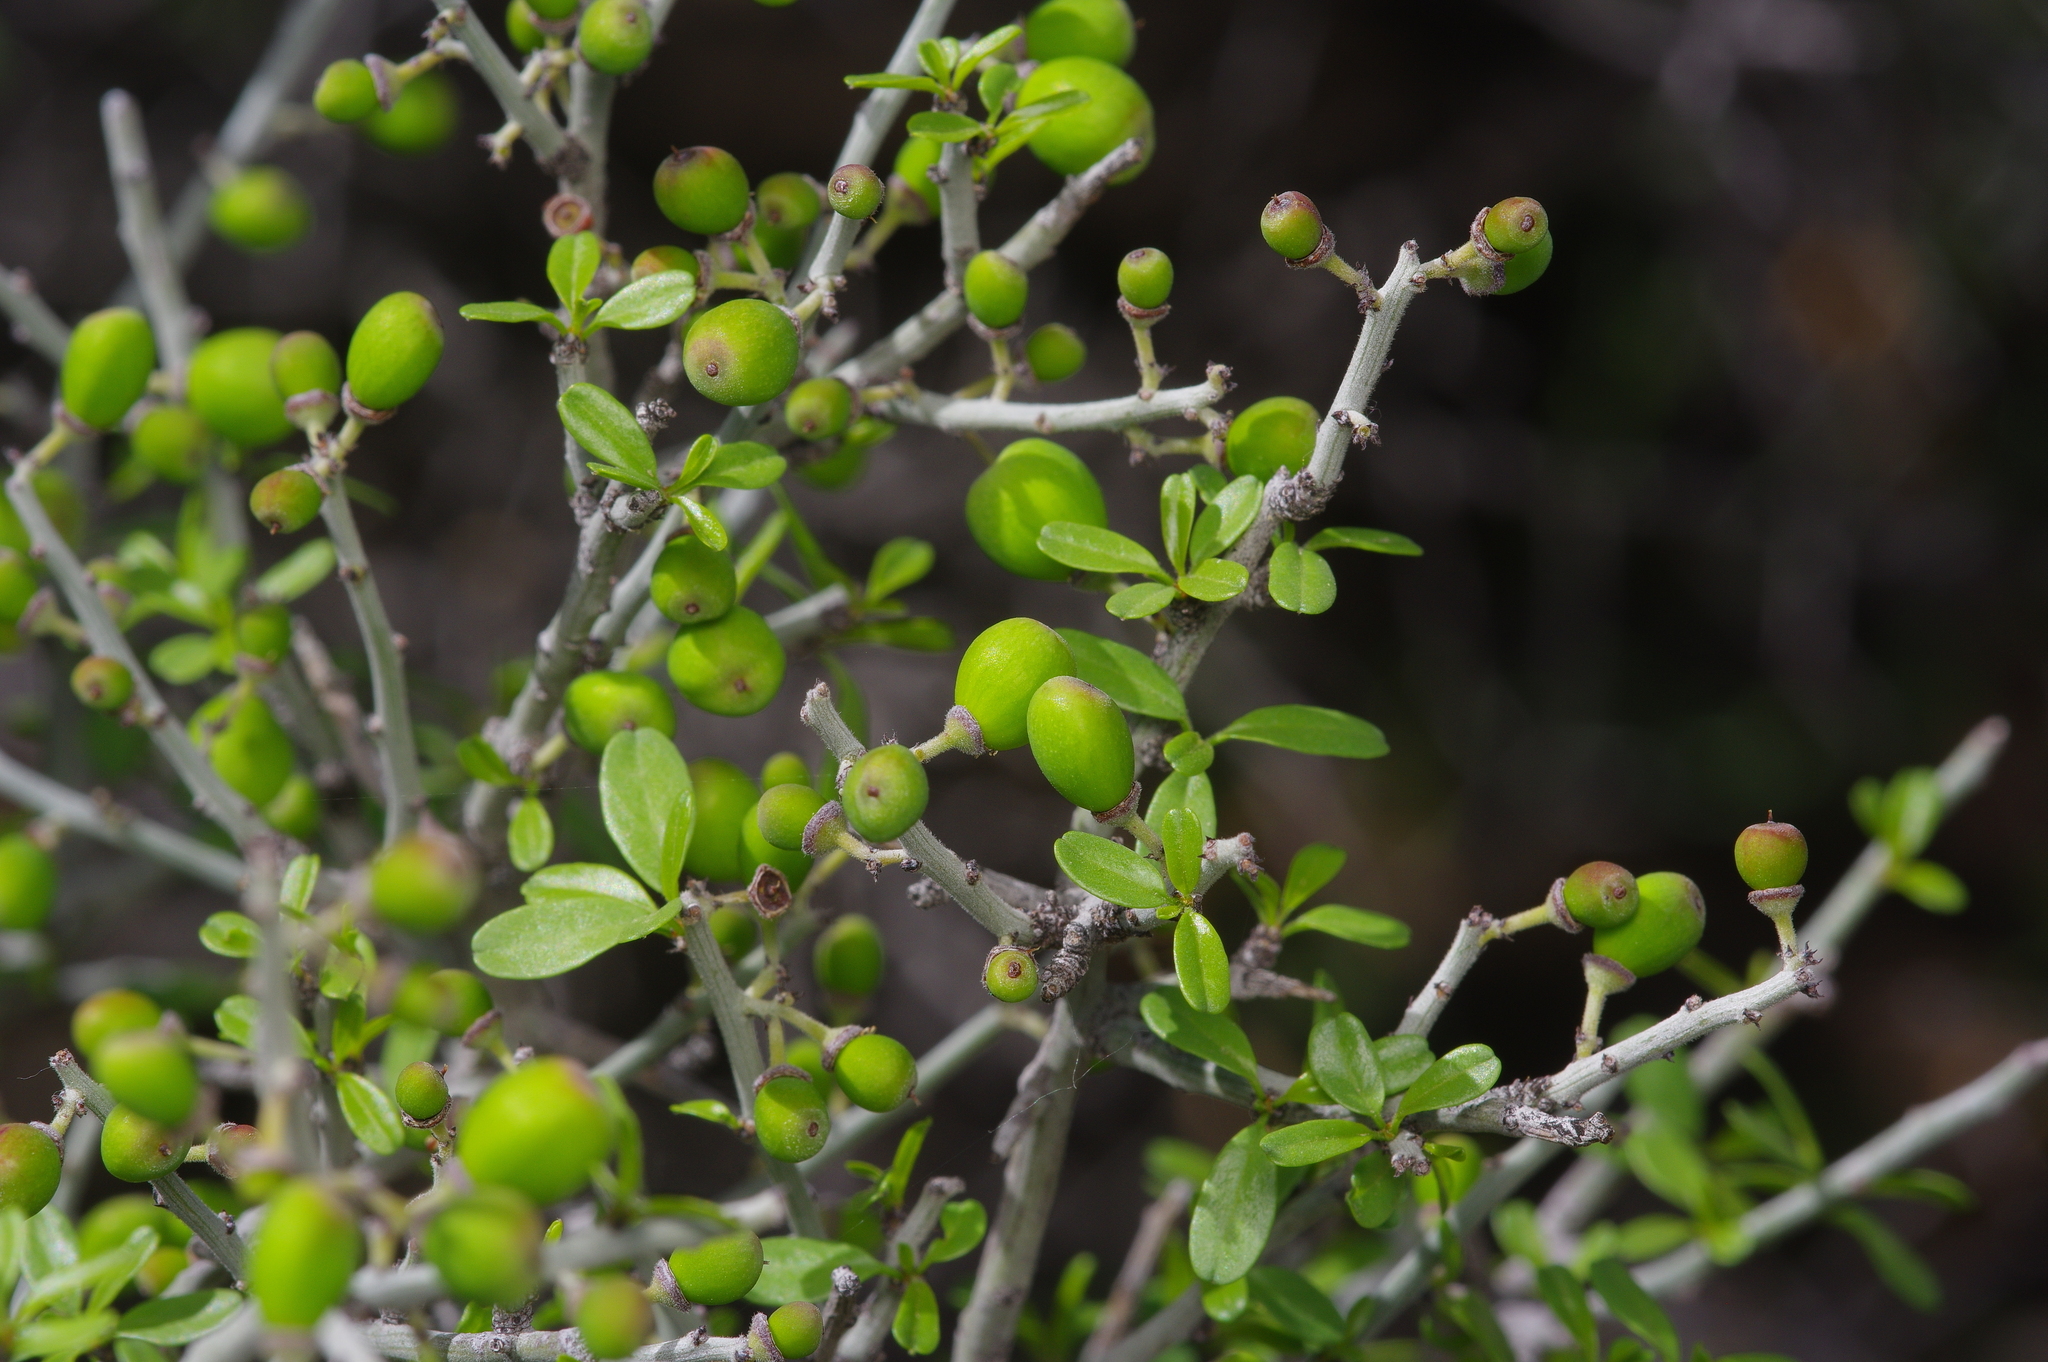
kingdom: Plantae
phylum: Tracheophyta
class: Magnoliopsida
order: Rosales
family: Rhamnaceae
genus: Sarcomphalus
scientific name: Sarcomphalus obtusifolius
